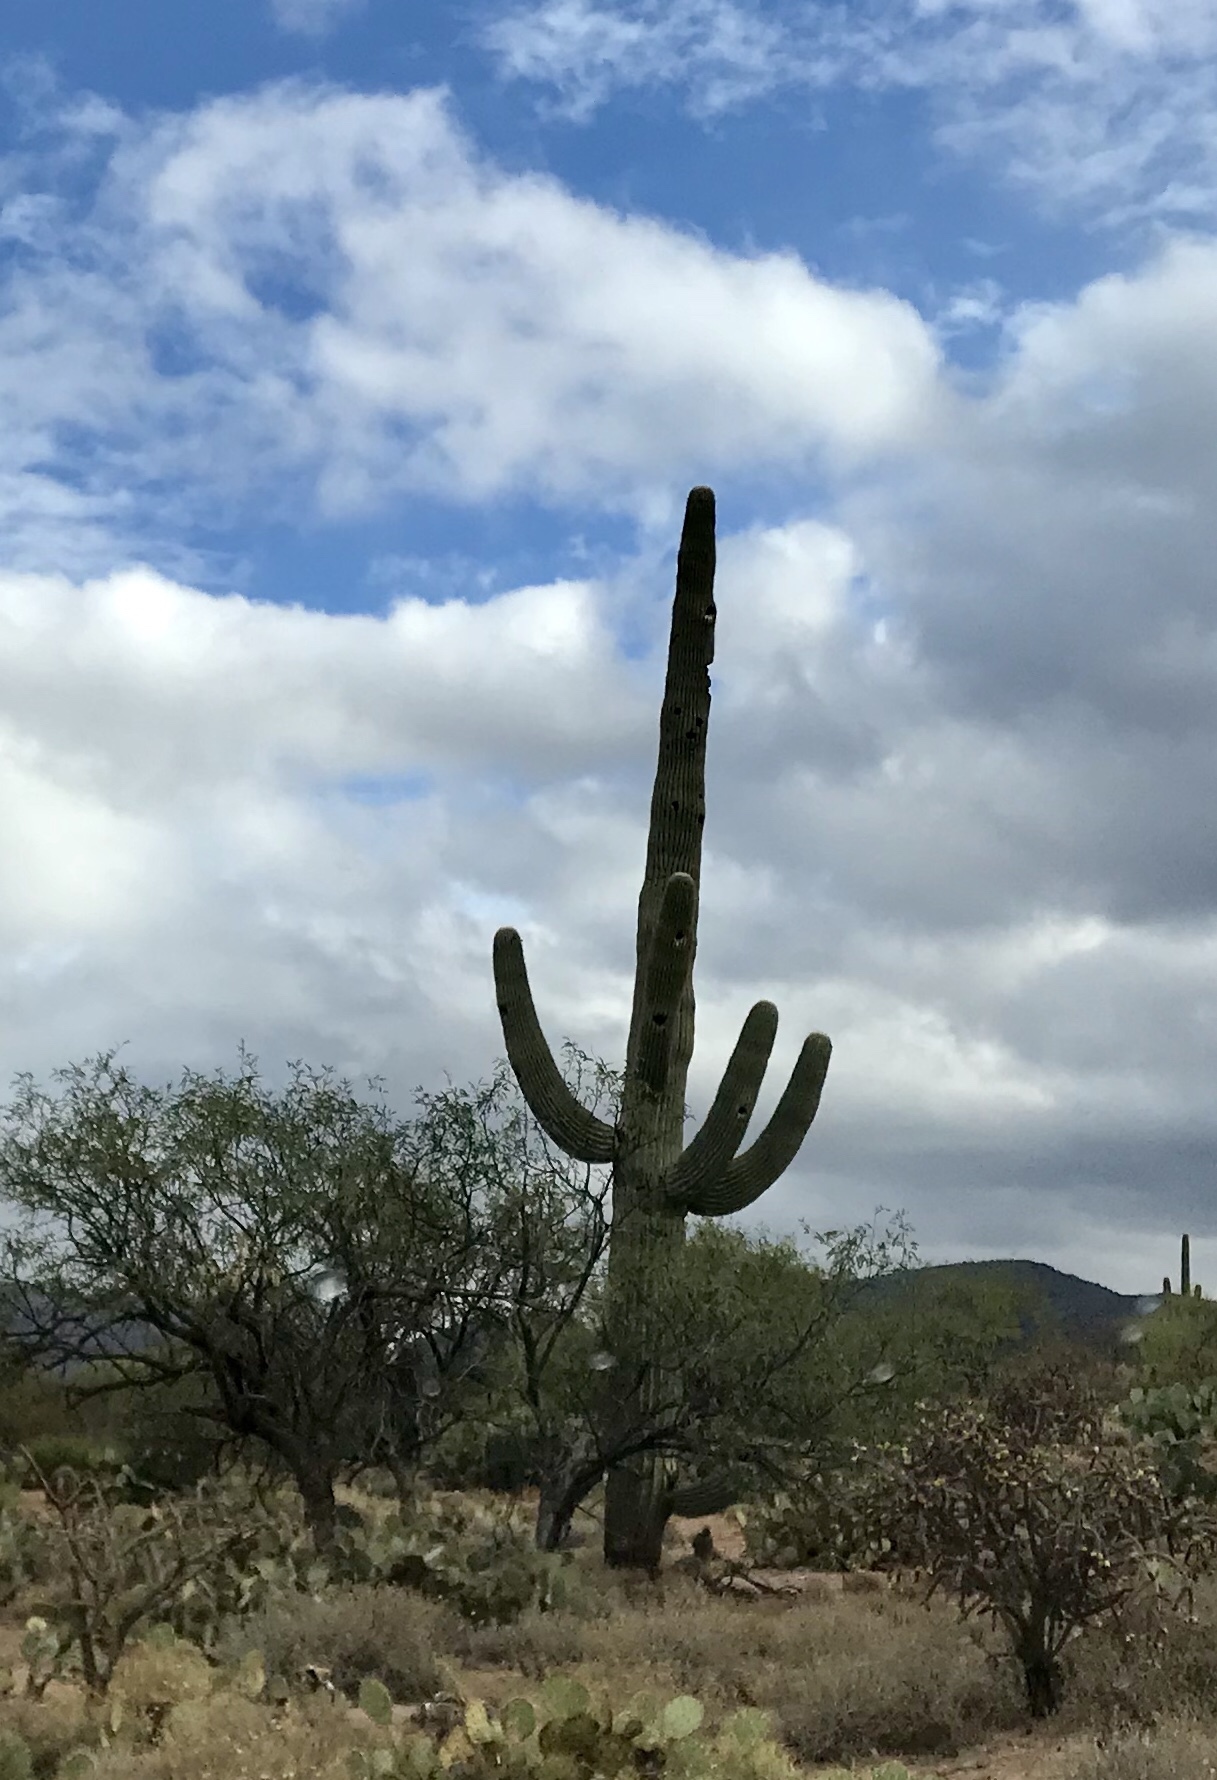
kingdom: Plantae
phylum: Tracheophyta
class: Magnoliopsida
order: Caryophyllales
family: Cactaceae
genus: Carnegiea
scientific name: Carnegiea gigantea
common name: Saguaro
